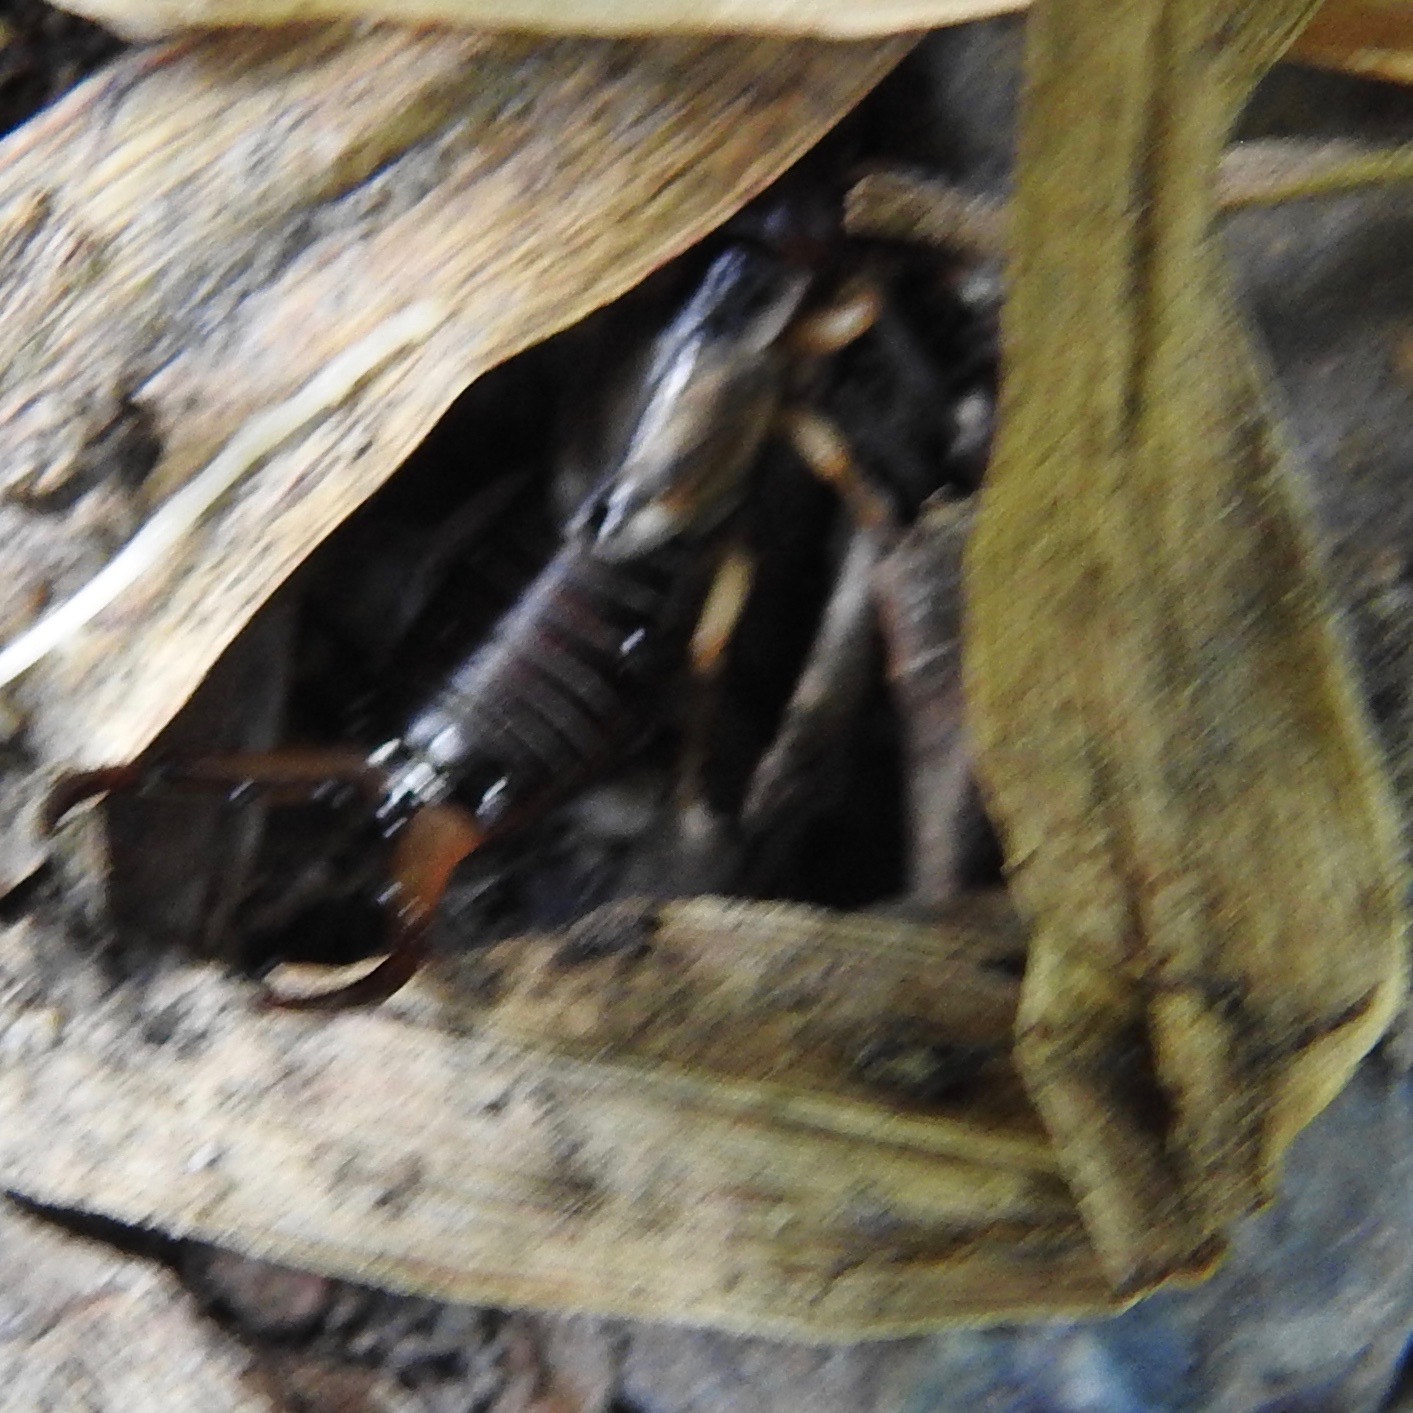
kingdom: Animalia
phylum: Arthropoda
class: Insecta
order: Dermaptera
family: Forficulidae
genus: Forficula
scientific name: Forficula
